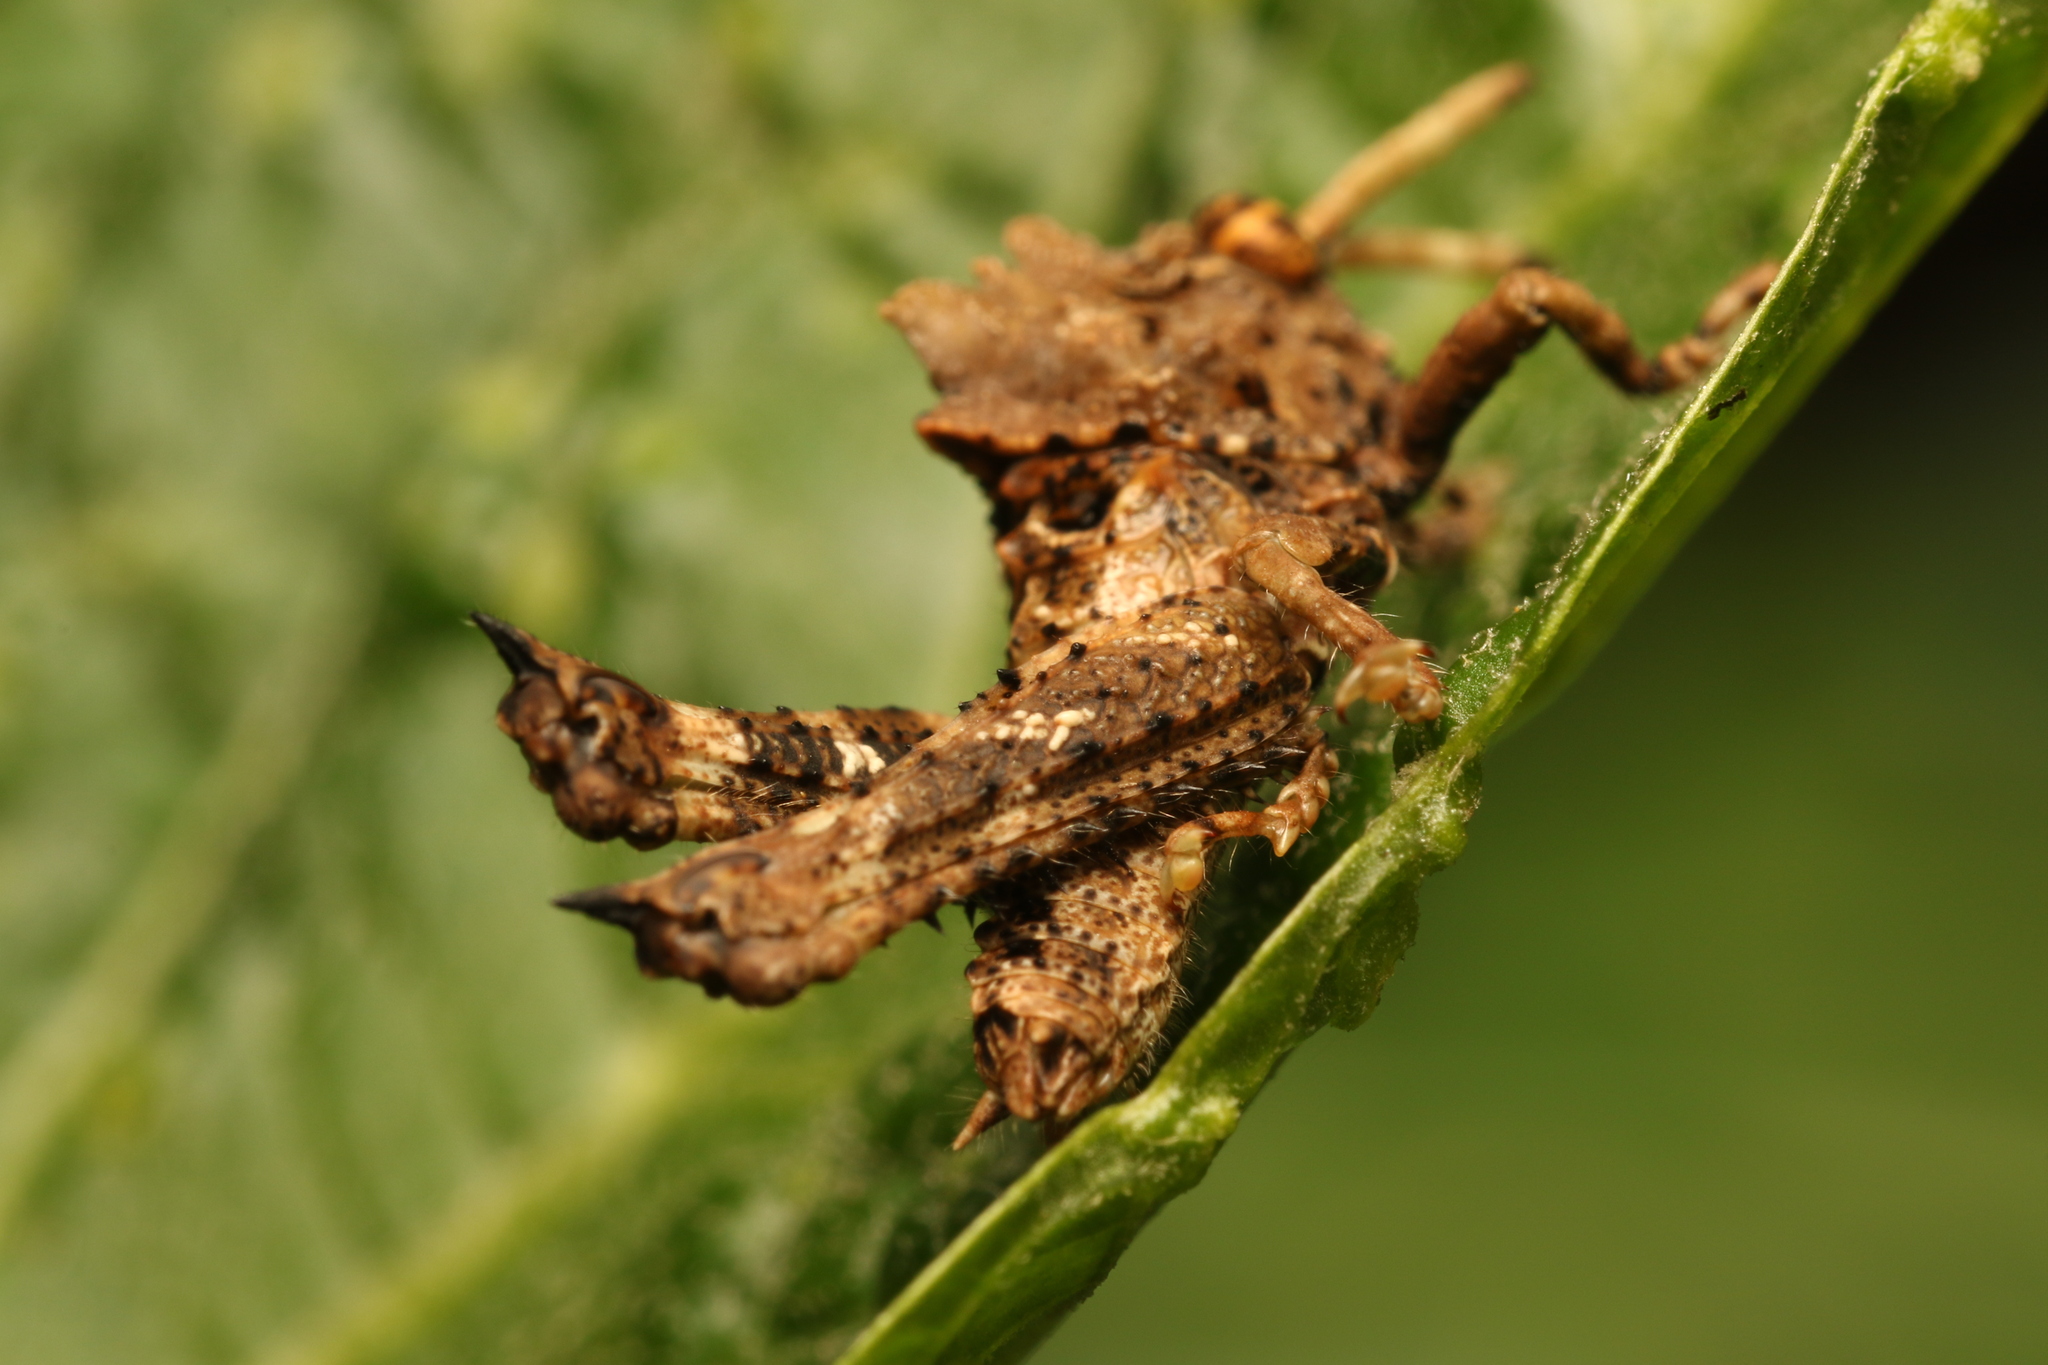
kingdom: Animalia
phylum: Arthropoda
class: Insecta
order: Orthoptera
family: Acrididae
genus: Pycnosarcus
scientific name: Pycnosarcus atavus
